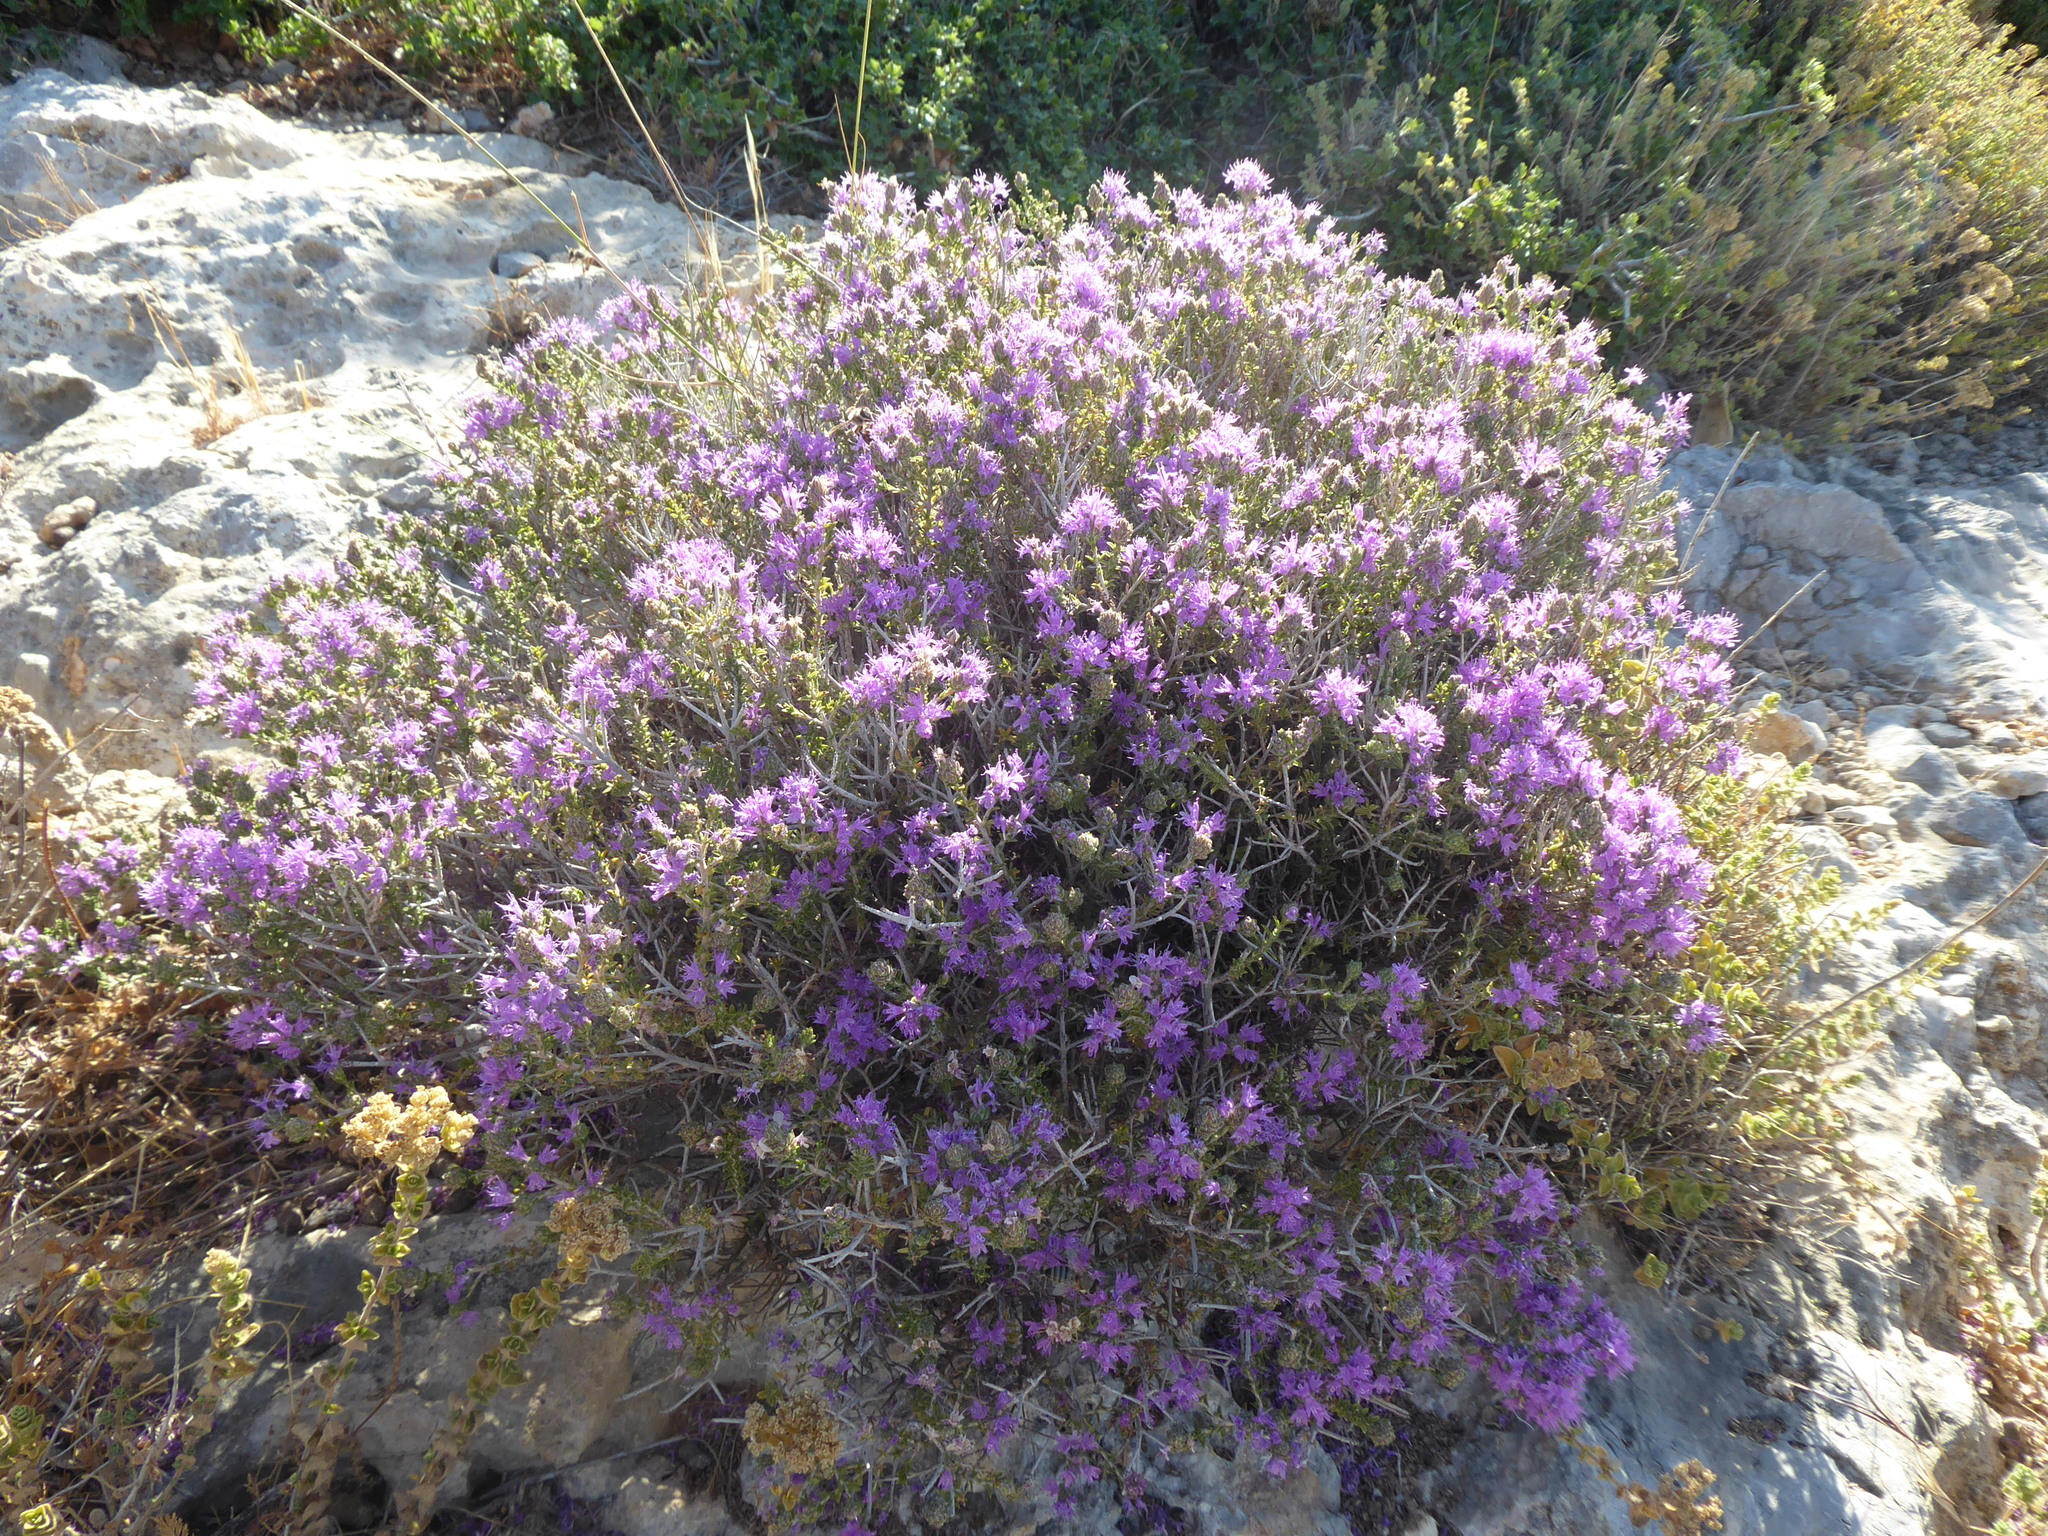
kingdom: Plantae
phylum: Tracheophyta
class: Magnoliopsida
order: Lamiales
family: Lamiaceae
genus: Thymbra
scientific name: Thymbra capitata
